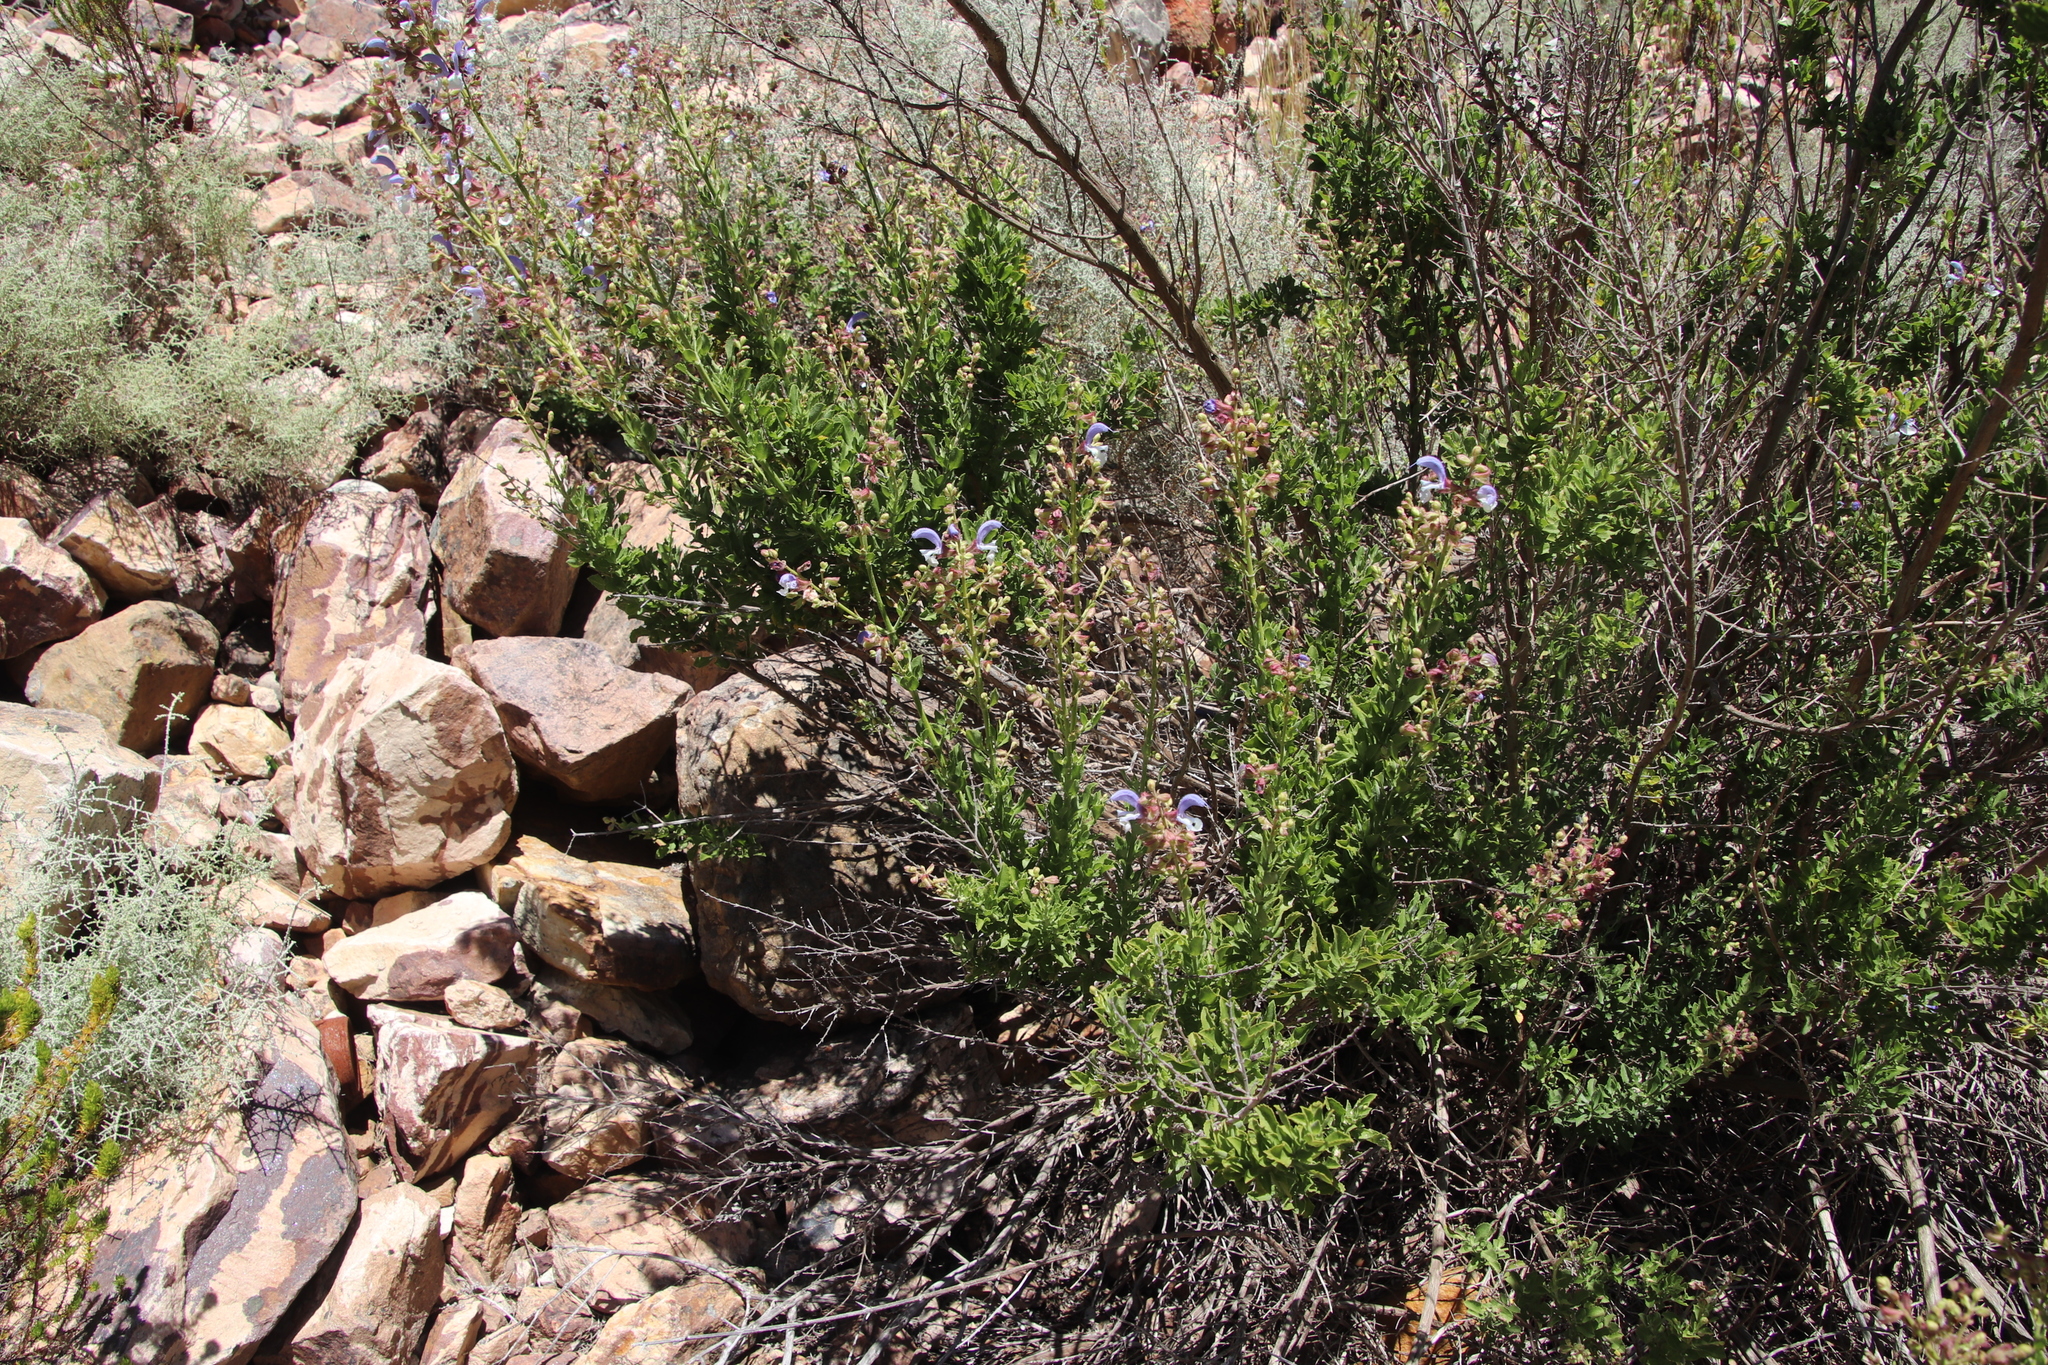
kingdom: Plantae
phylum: Tracheophyta
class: Magnoliopsida
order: Lamiales
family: Lamiaceae
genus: Salvia
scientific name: Salvia chamelaeagnea
